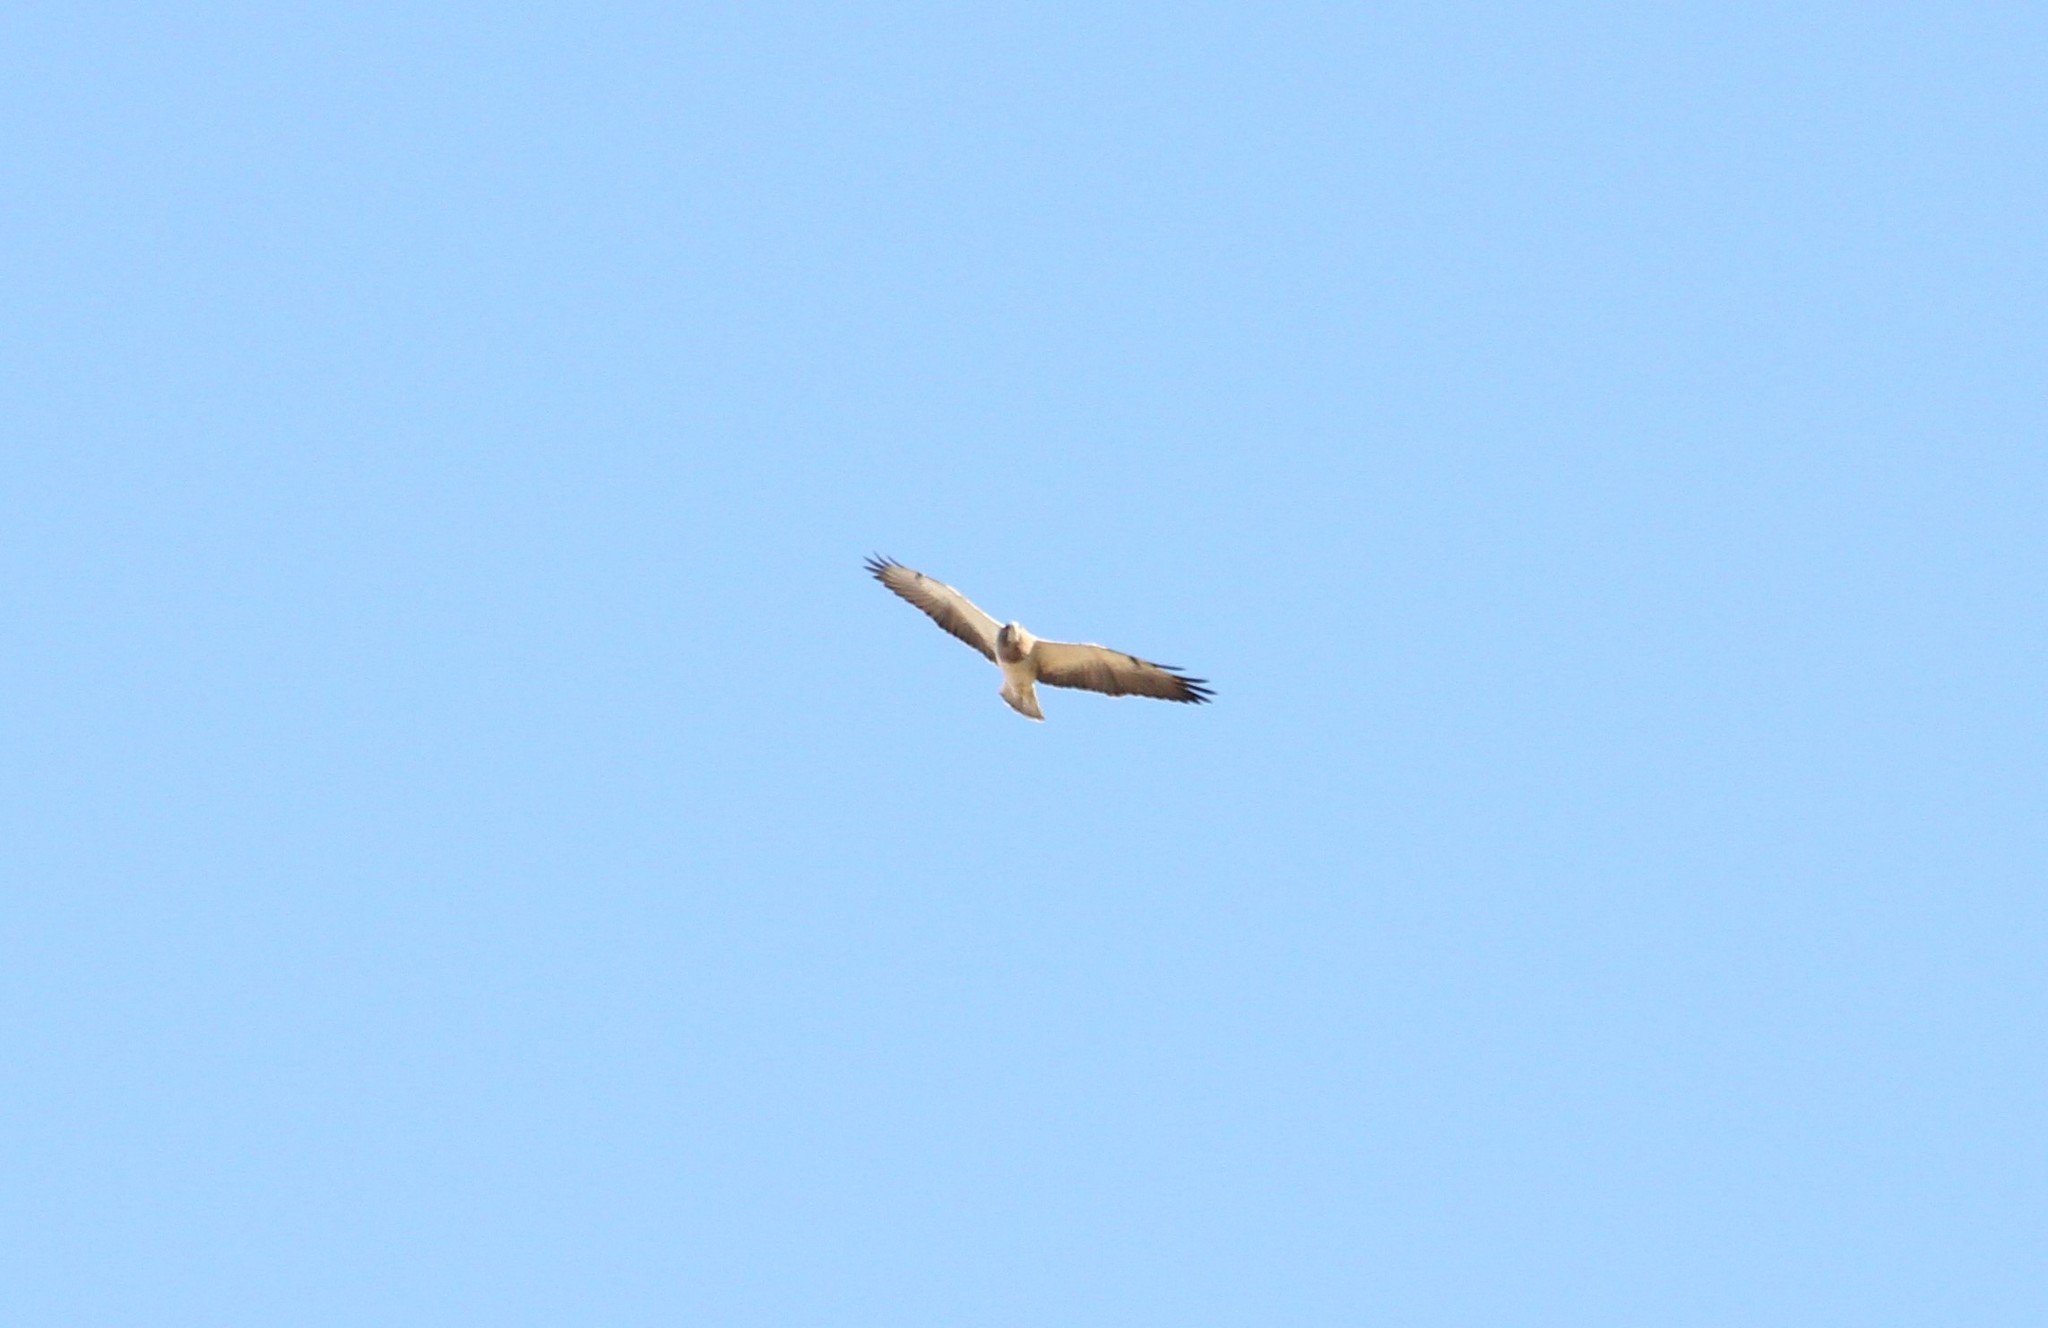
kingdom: Animalia
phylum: Chordata
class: Aves
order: Accipitriformes
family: Accipitridae
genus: Buteo
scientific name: Buteo swainsoni
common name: Swainson's hawk
